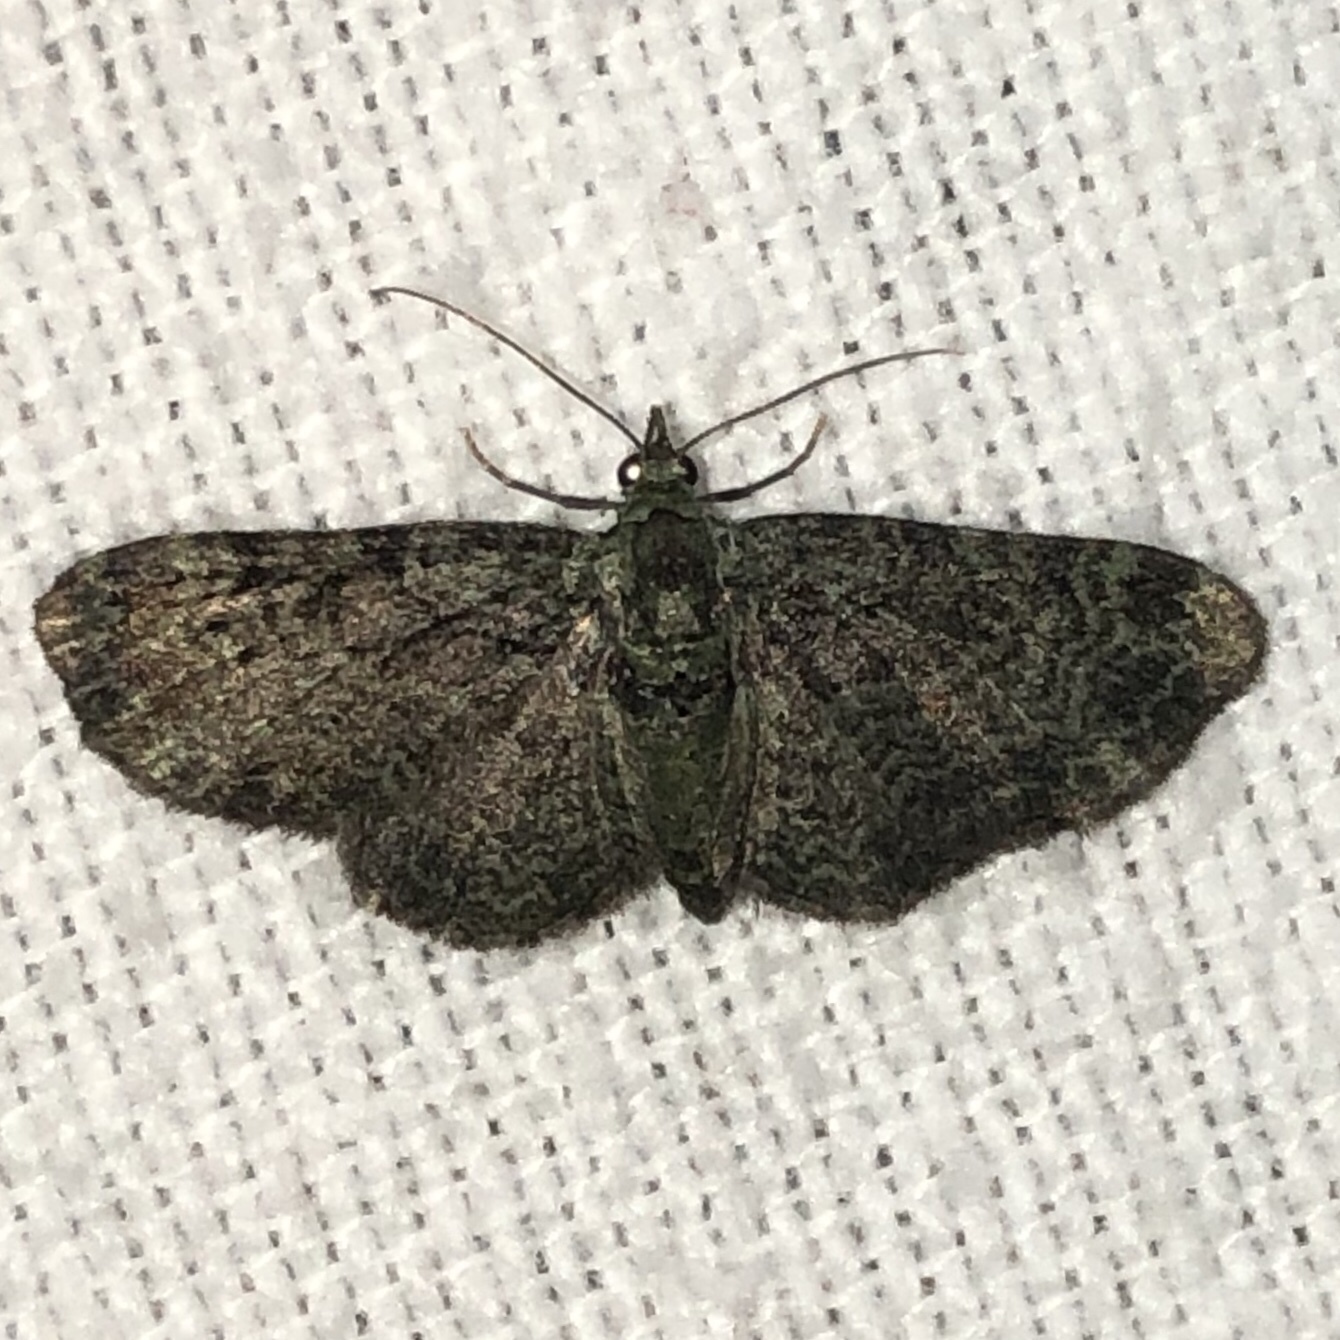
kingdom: Animalia
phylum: Arthropoda
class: Insecta
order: Lepidoptera
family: Geometridae
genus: Pasiphila
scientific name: Pasiphila rectangulata
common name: Green pug
